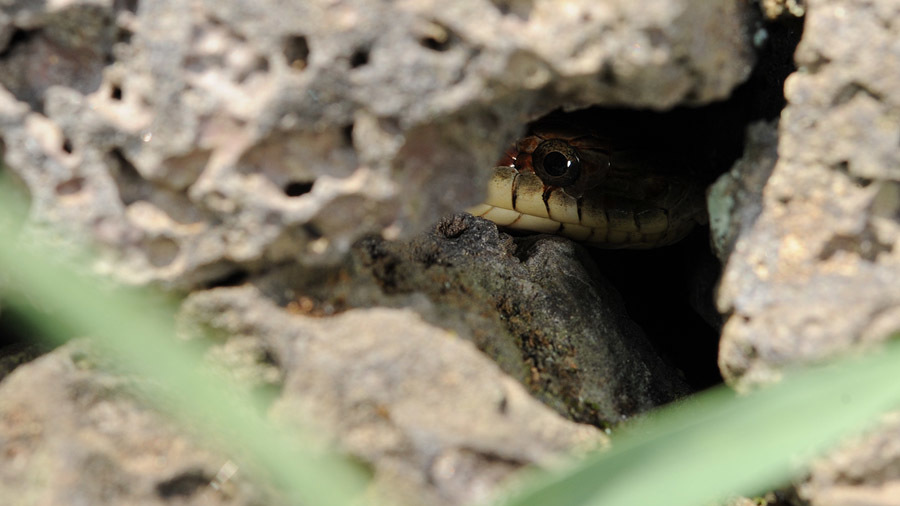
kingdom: Animalia
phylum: Chordata
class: Squamata
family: Colubridae
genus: Elaphe
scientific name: Elaphe dione
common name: Dione ratsnake
